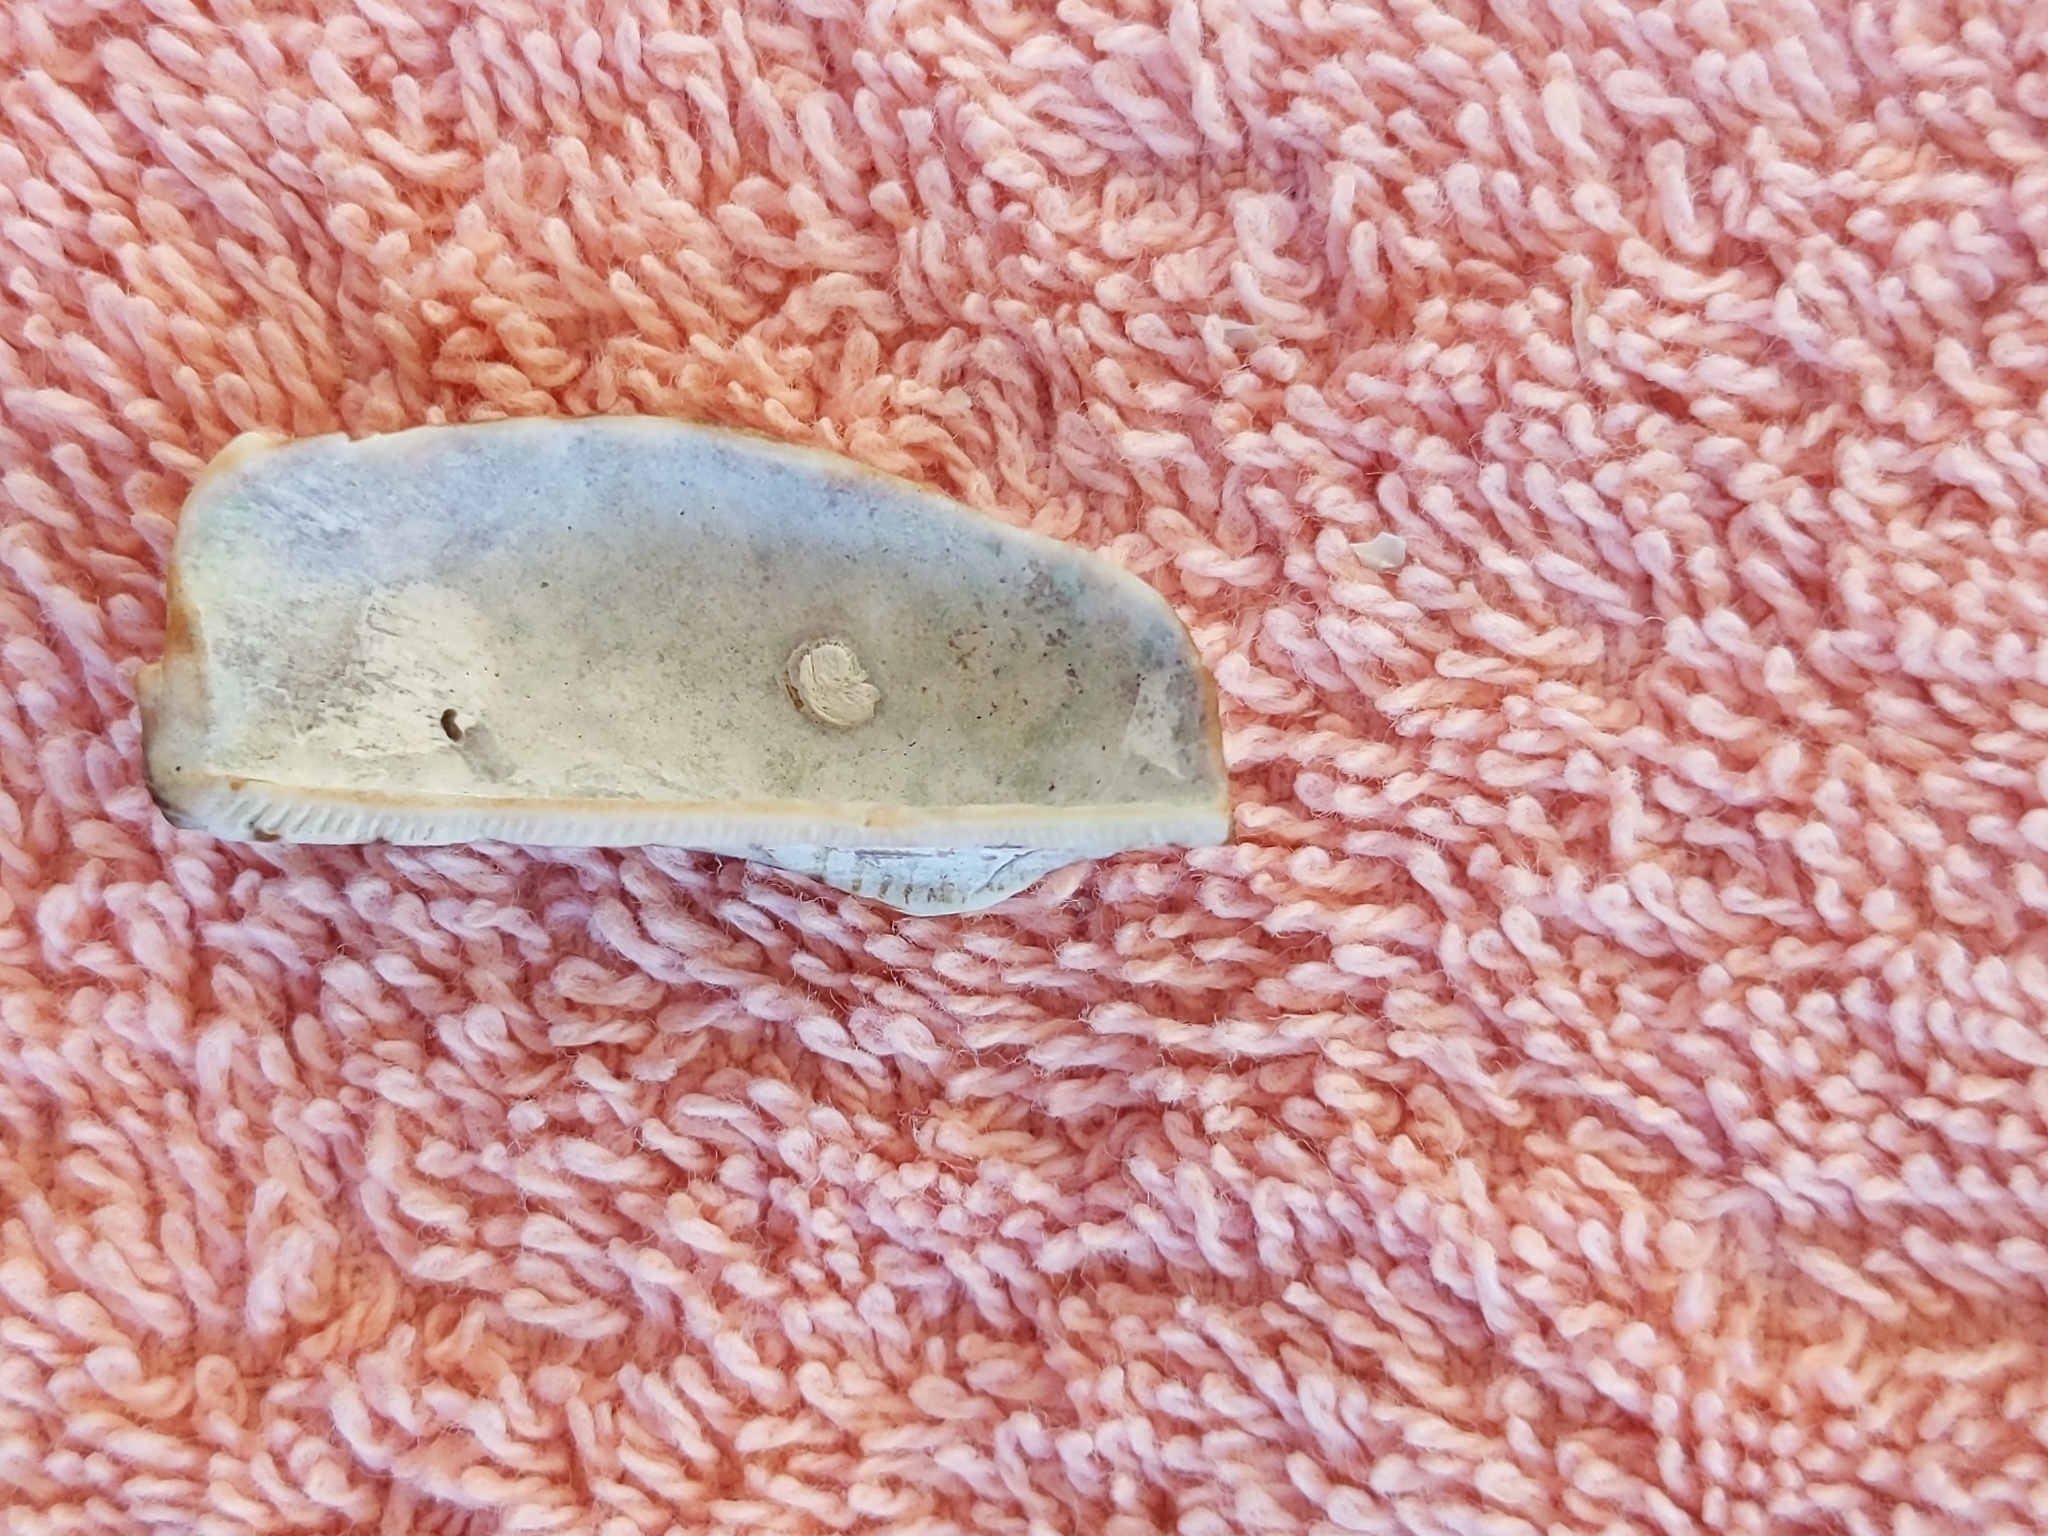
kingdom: Animalia
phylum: Mollusca
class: Bivalvia
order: Arcida
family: Arcidae
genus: Arca
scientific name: Arca zebra
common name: Atlantic turkey wing
